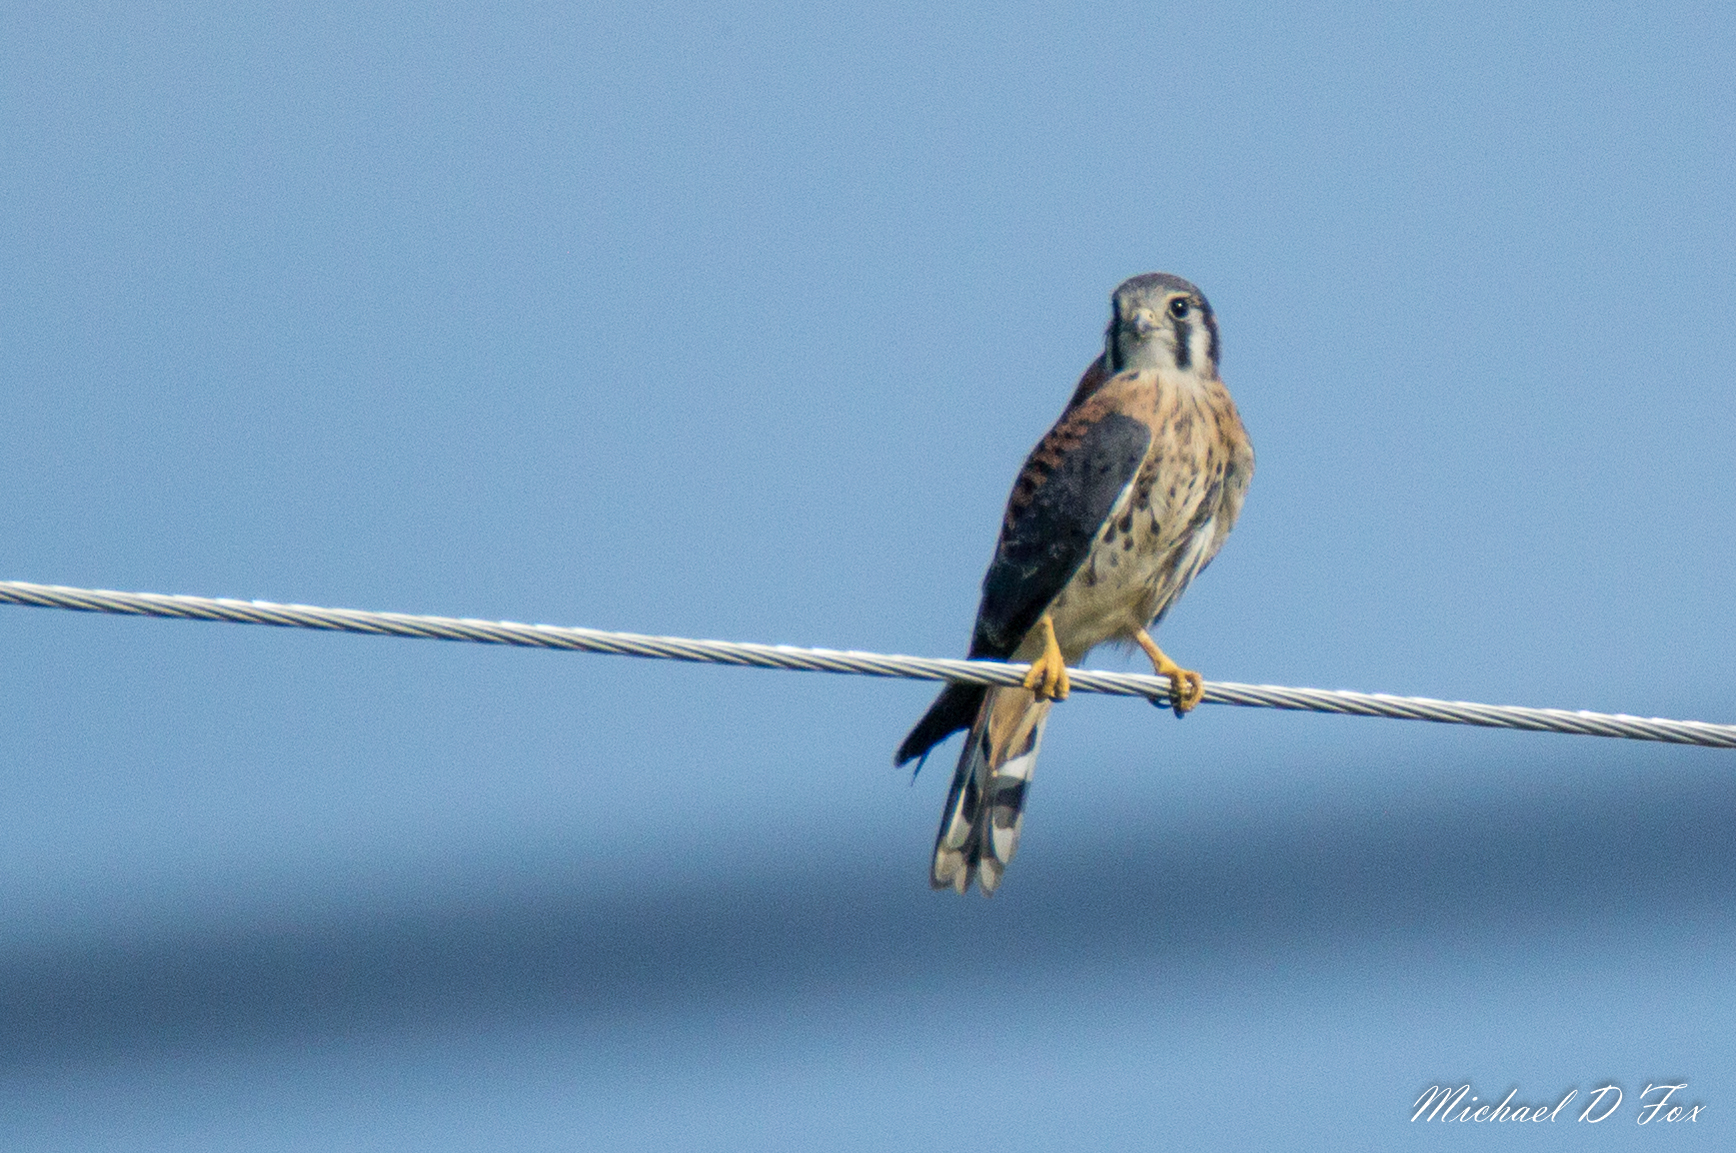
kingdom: Animalia
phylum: Chordata
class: Aves
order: Falconiformes
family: Falconidae
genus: Falco
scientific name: Falco sparverius
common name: American kestrel
